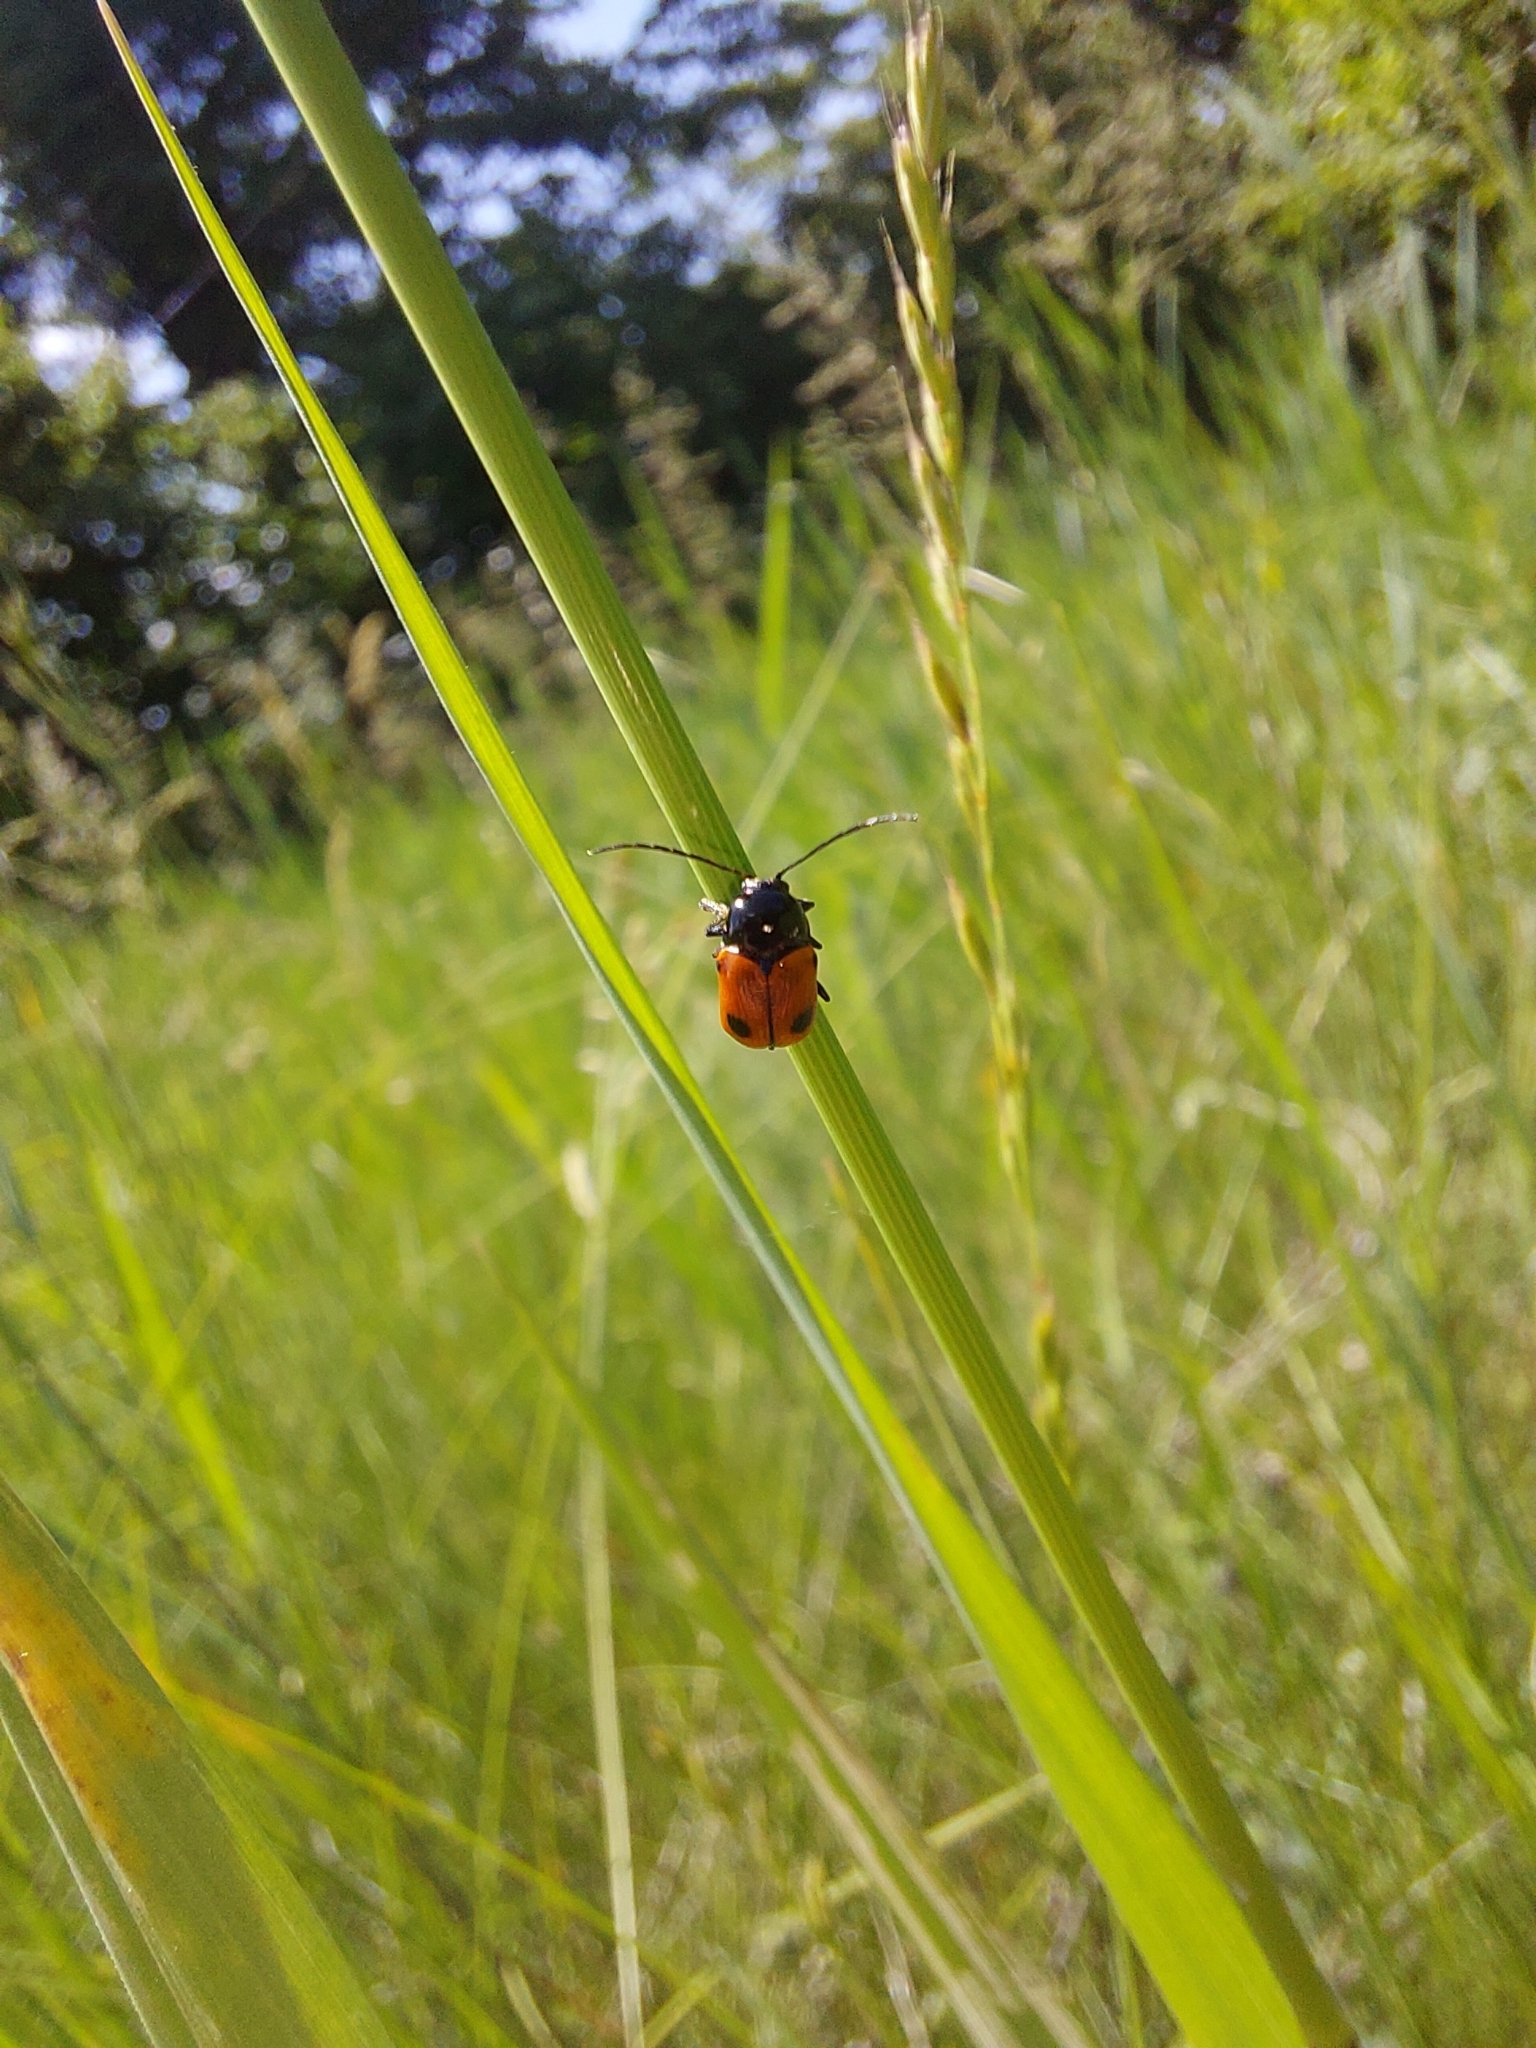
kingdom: Animalia
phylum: Arthropoda
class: Insecta
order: Coleoptera
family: Chrysomelidae
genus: Chiridopsis
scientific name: Chiridopsis bipunctata
